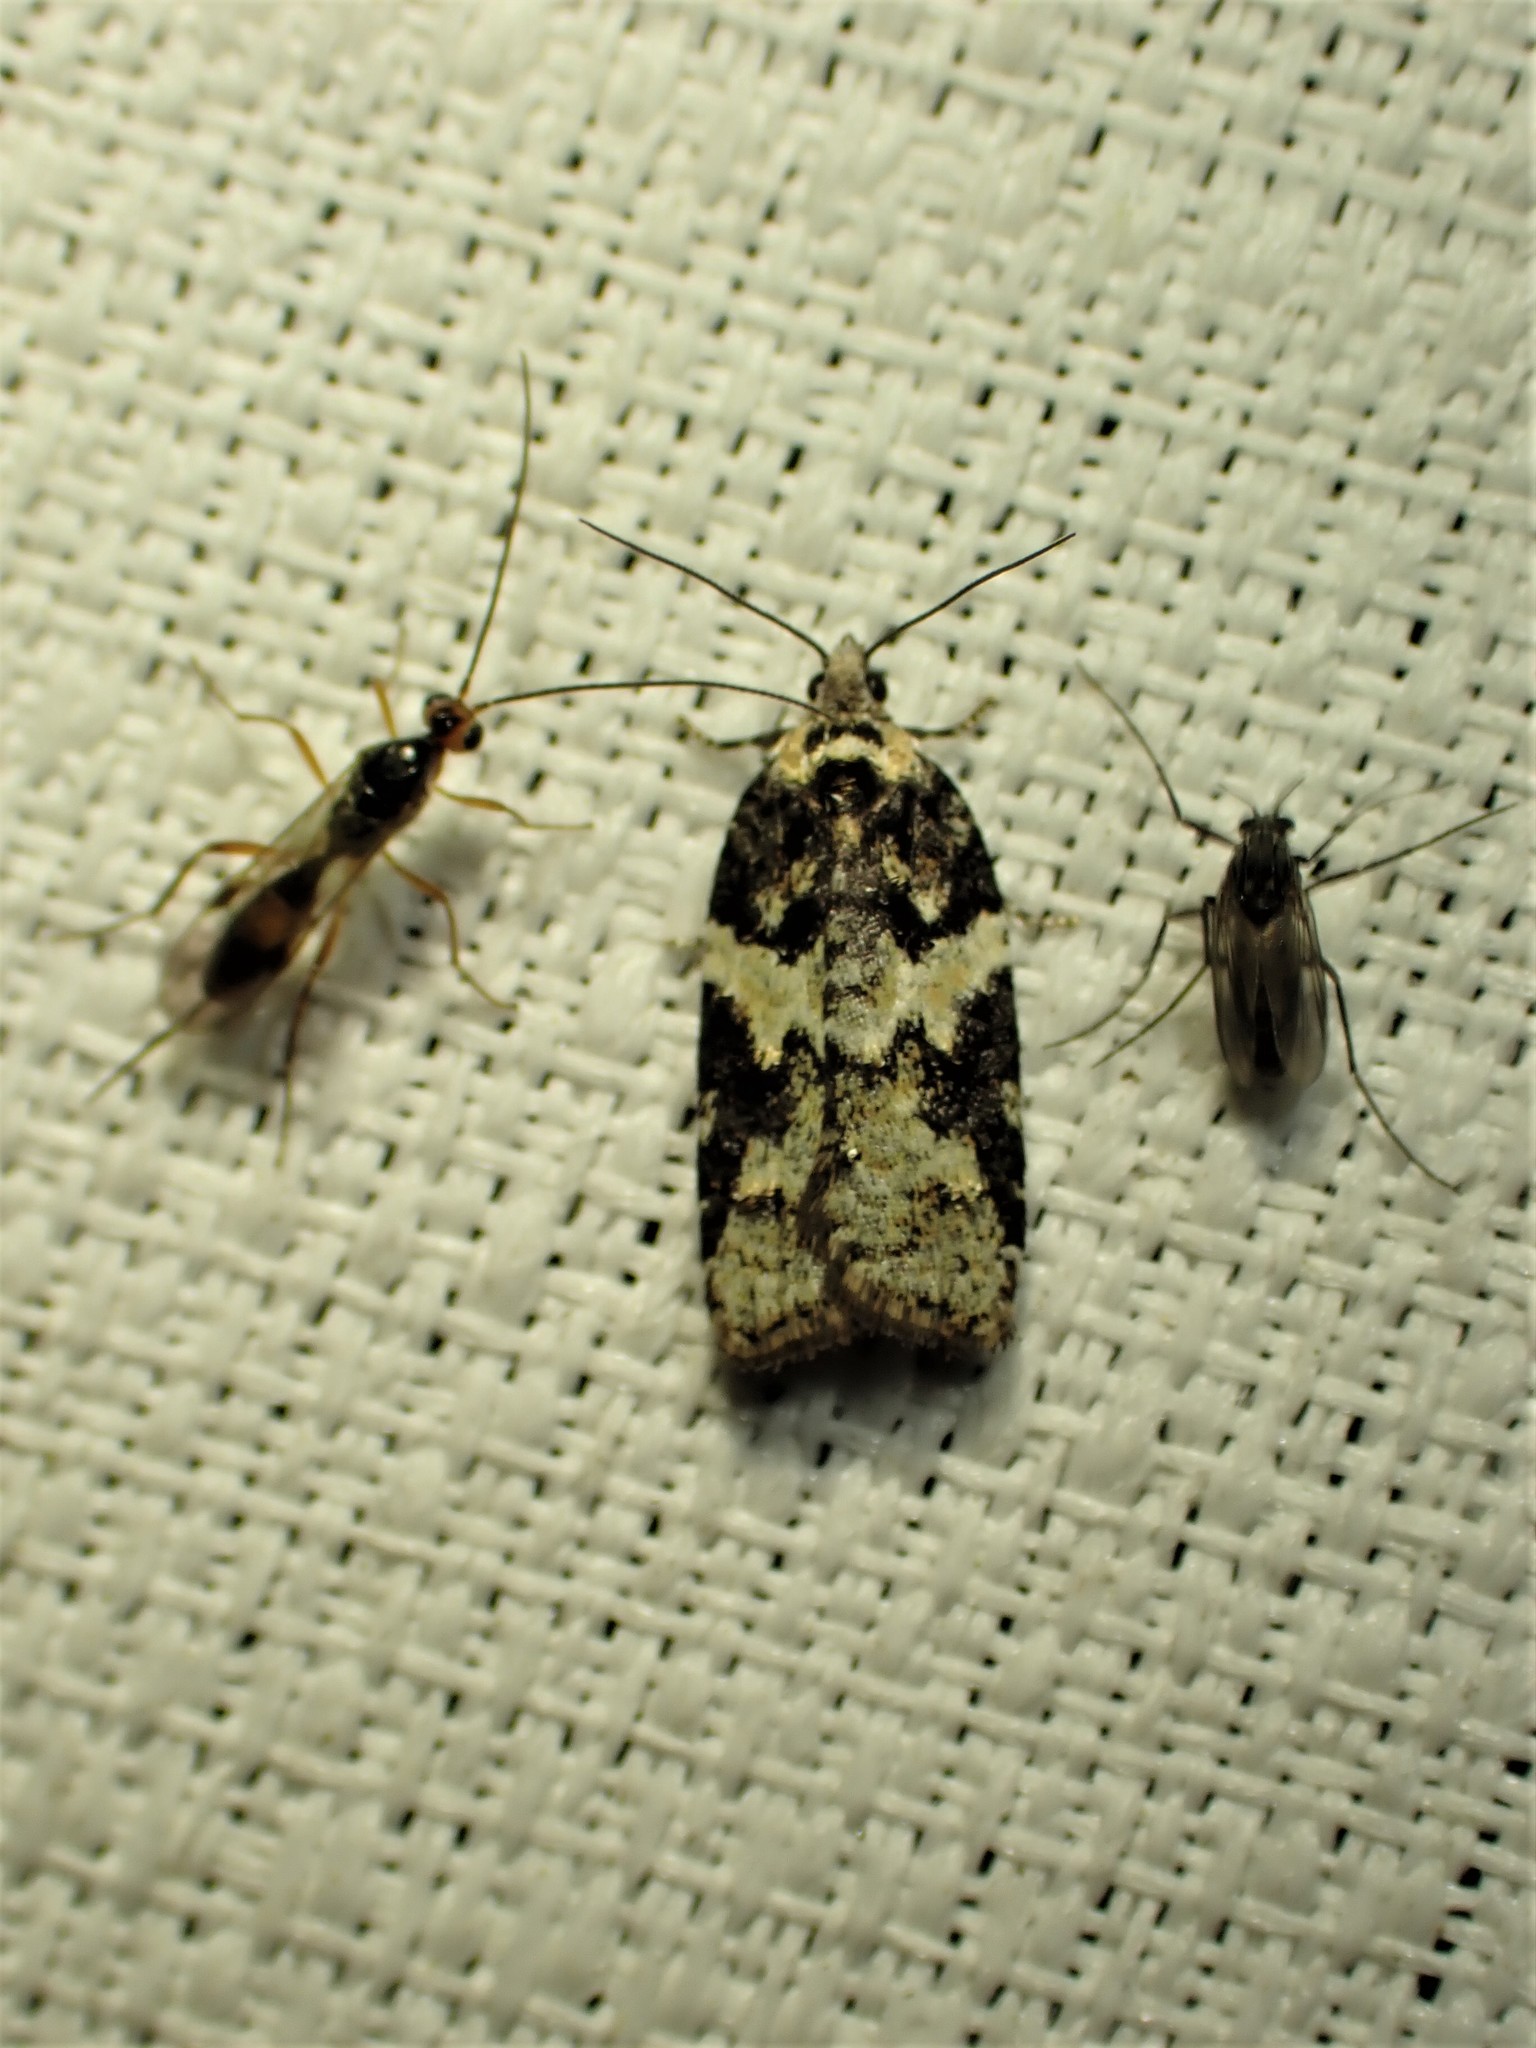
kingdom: Animalia
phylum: Arthropoda
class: Insecta
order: Lepidoptera
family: Tortricidae
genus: Acleris
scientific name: Acleris variana
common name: Eastern black-headed budworm moth
